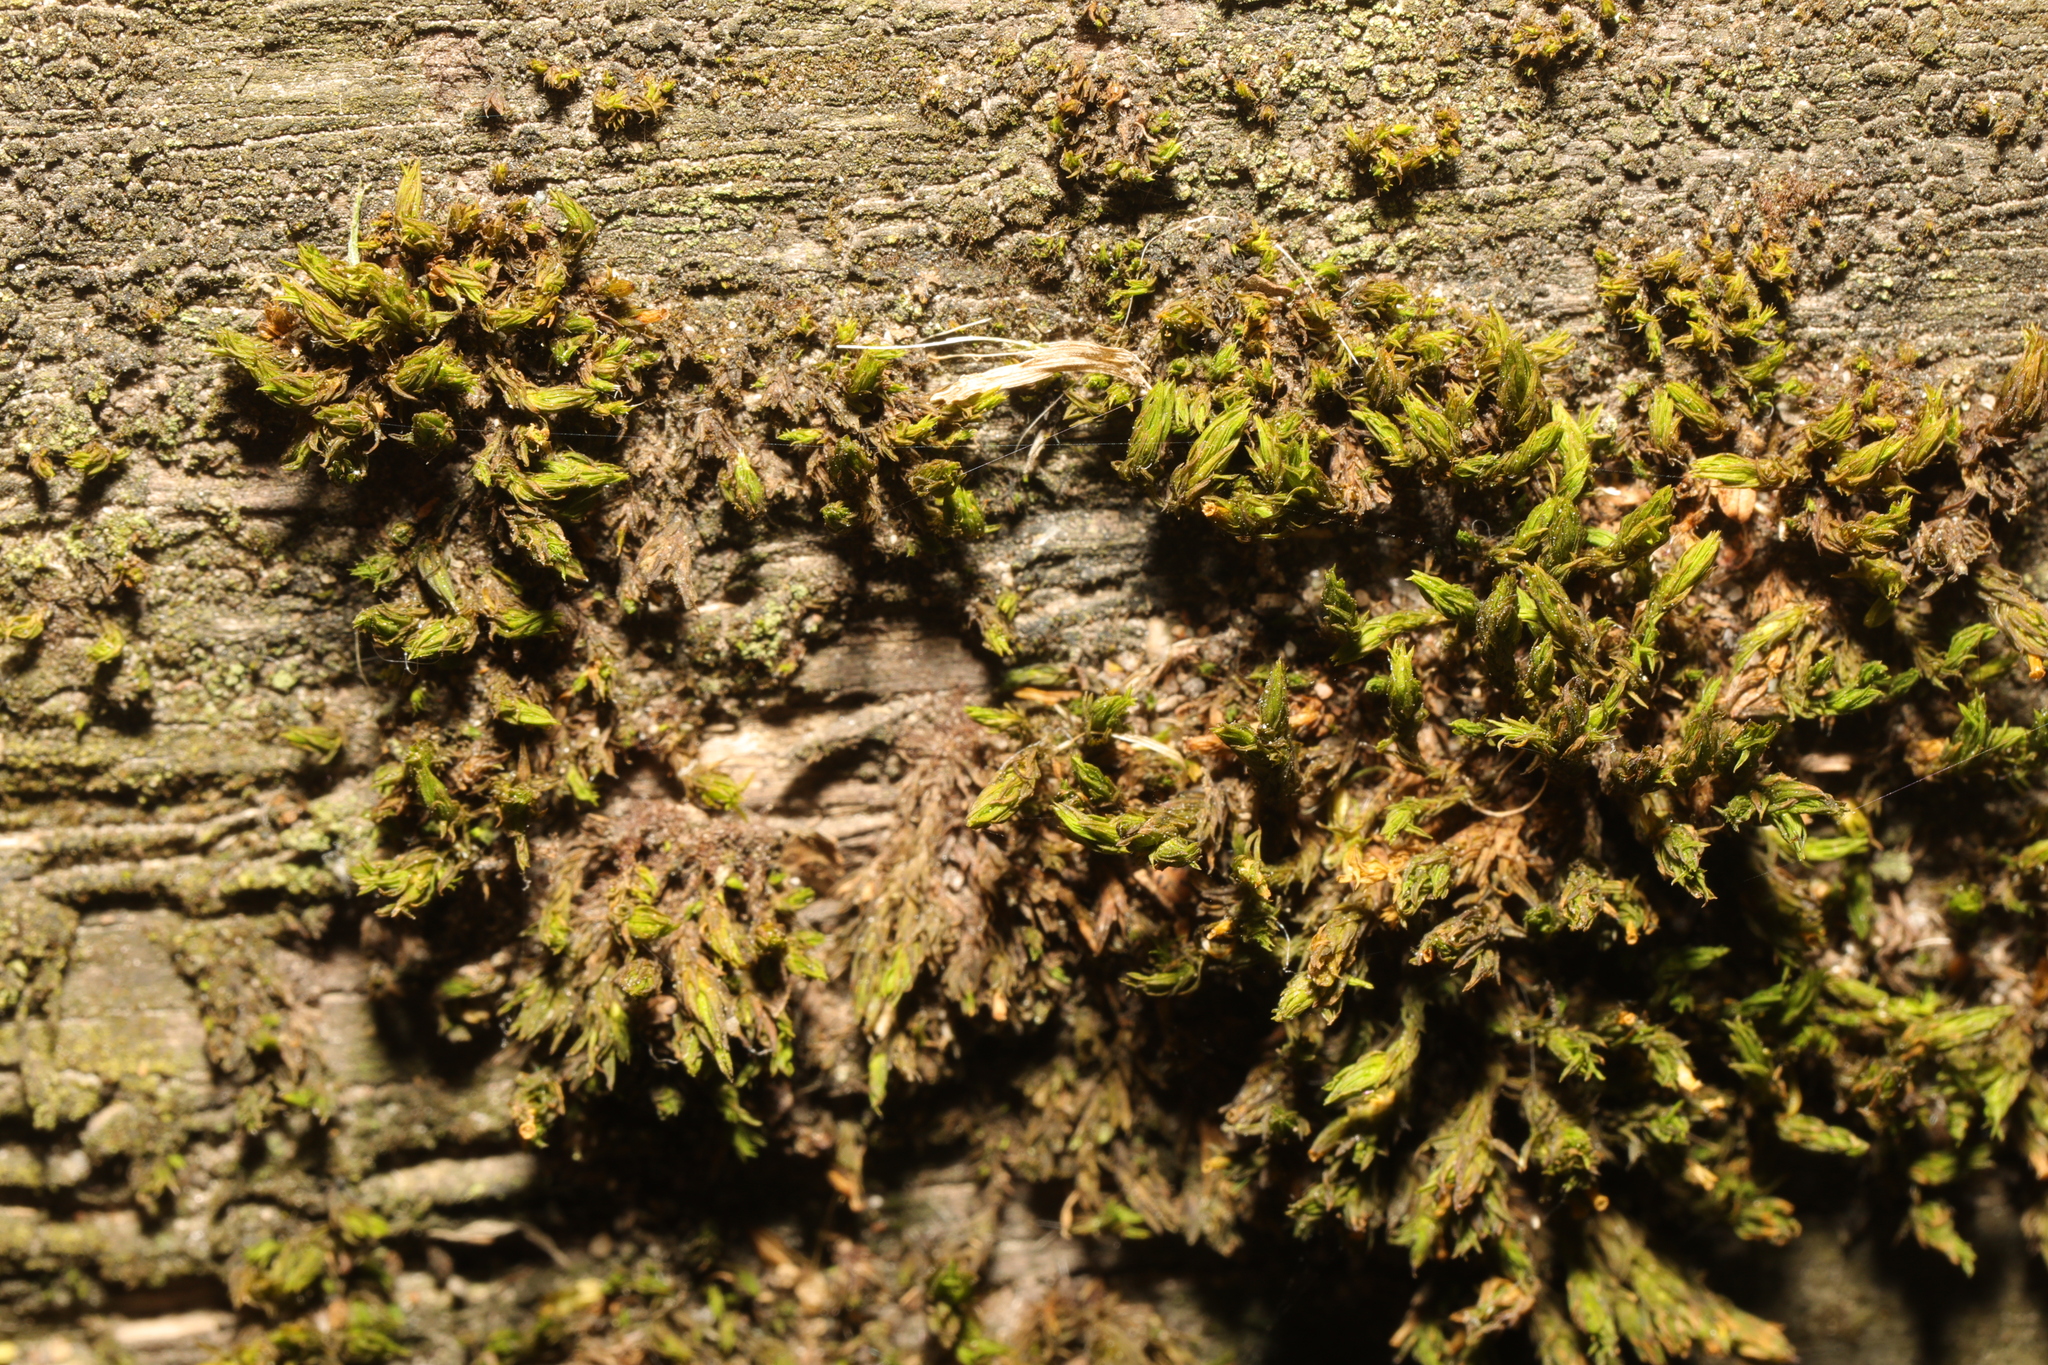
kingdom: Plantae
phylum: Bryophyta
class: Bryopsida
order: Orthotrichales
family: Orthotrichaceae
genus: Lewinskya
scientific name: Lewinskya affinis
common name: Wood bristle-moss
